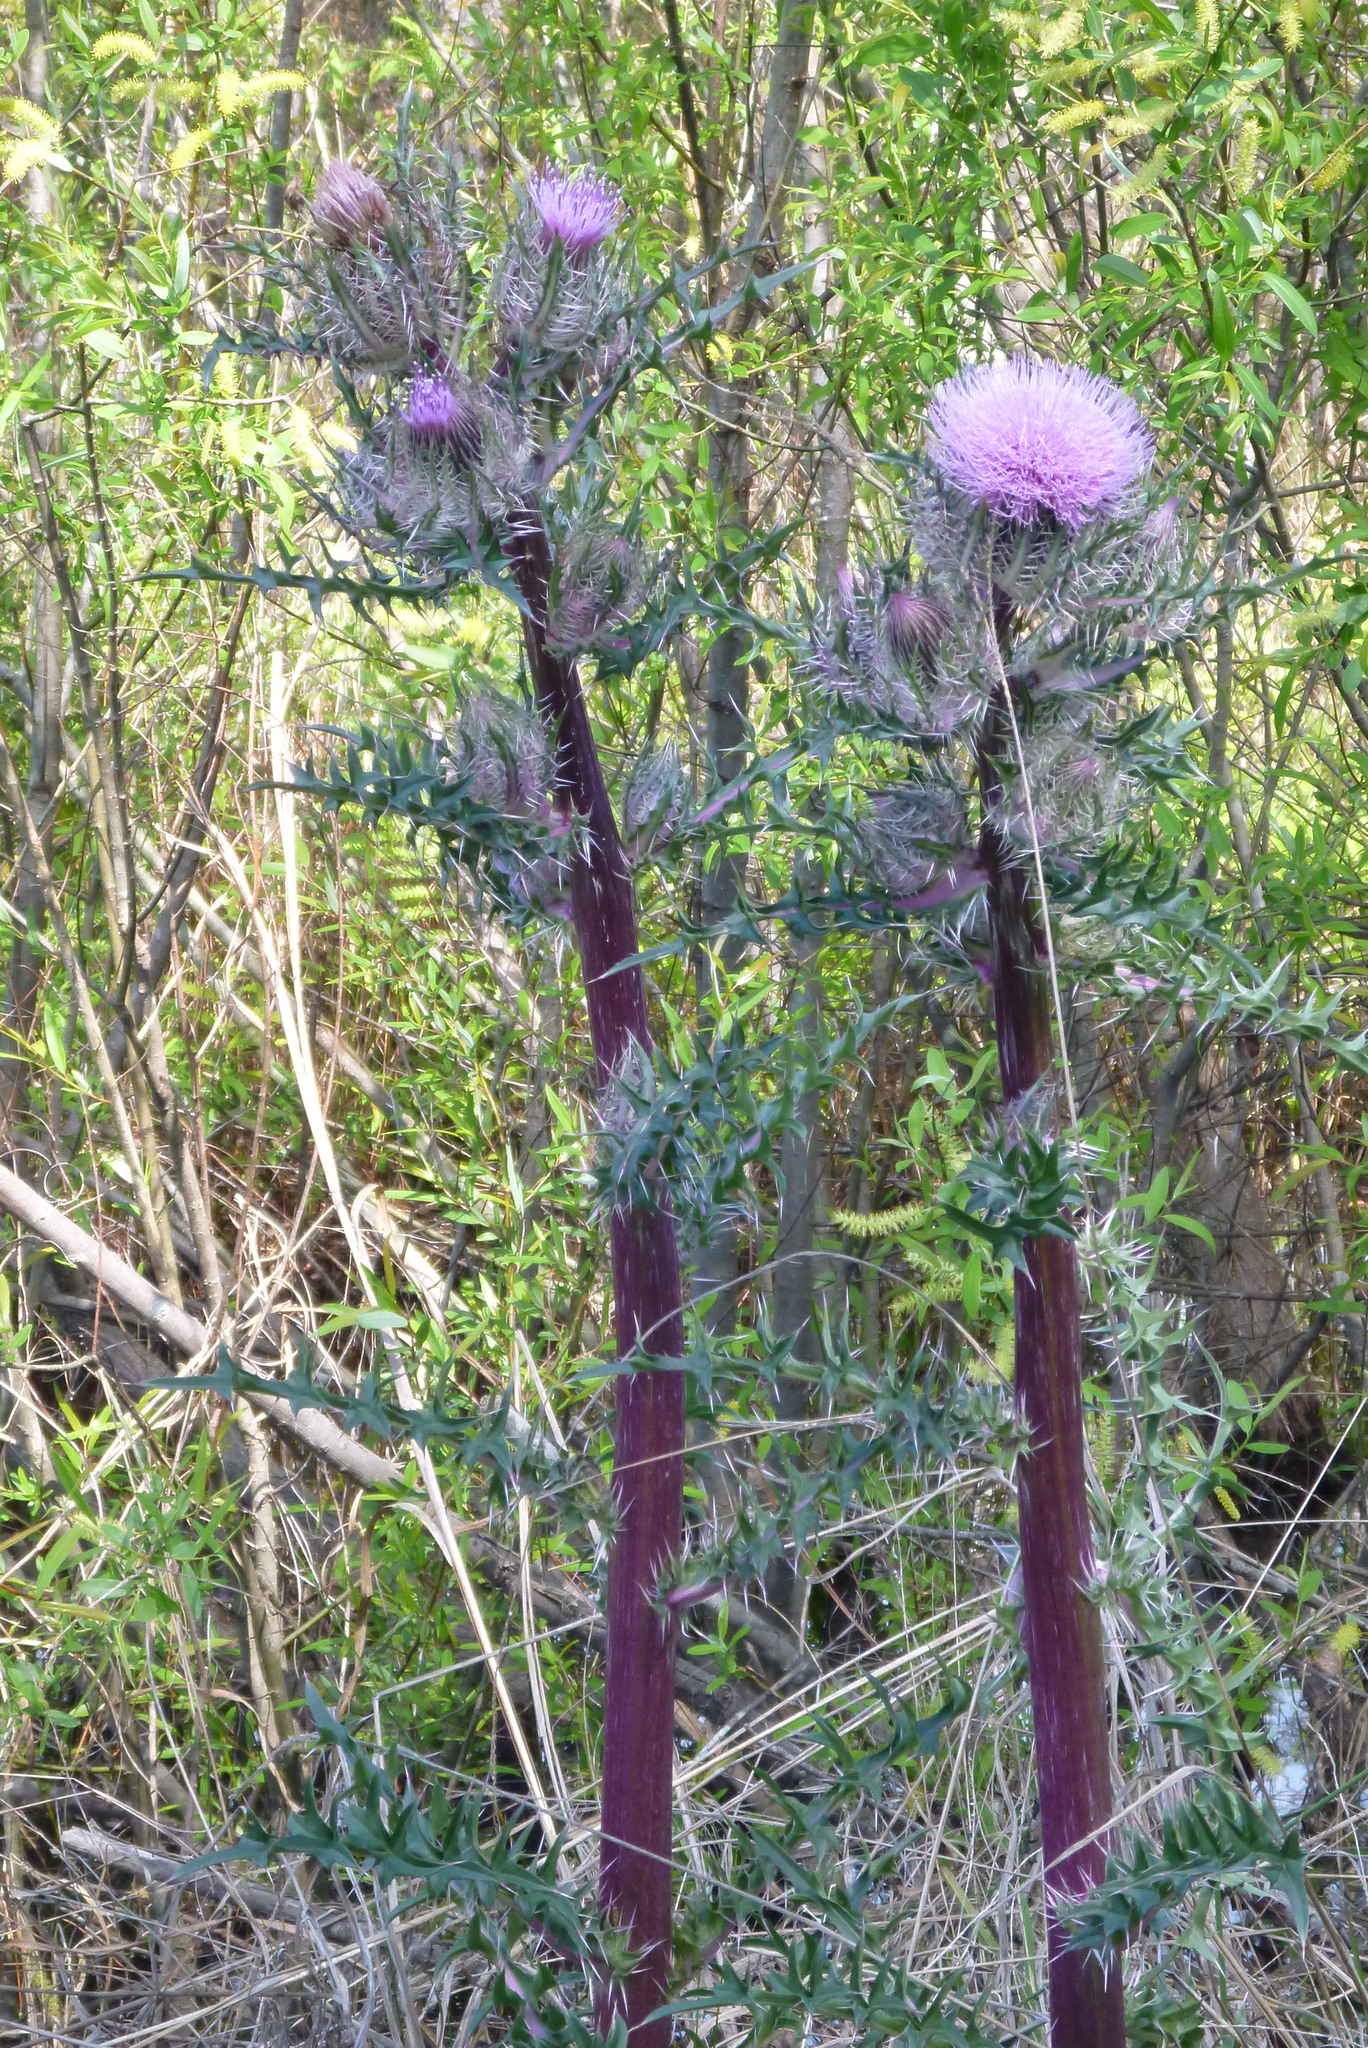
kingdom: Plantae
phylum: Tracheophyta
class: Magnoliopsida
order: Asterales
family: Asteraceae
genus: Cirsium
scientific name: Cirsium horridulum
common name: Bristly thistle
